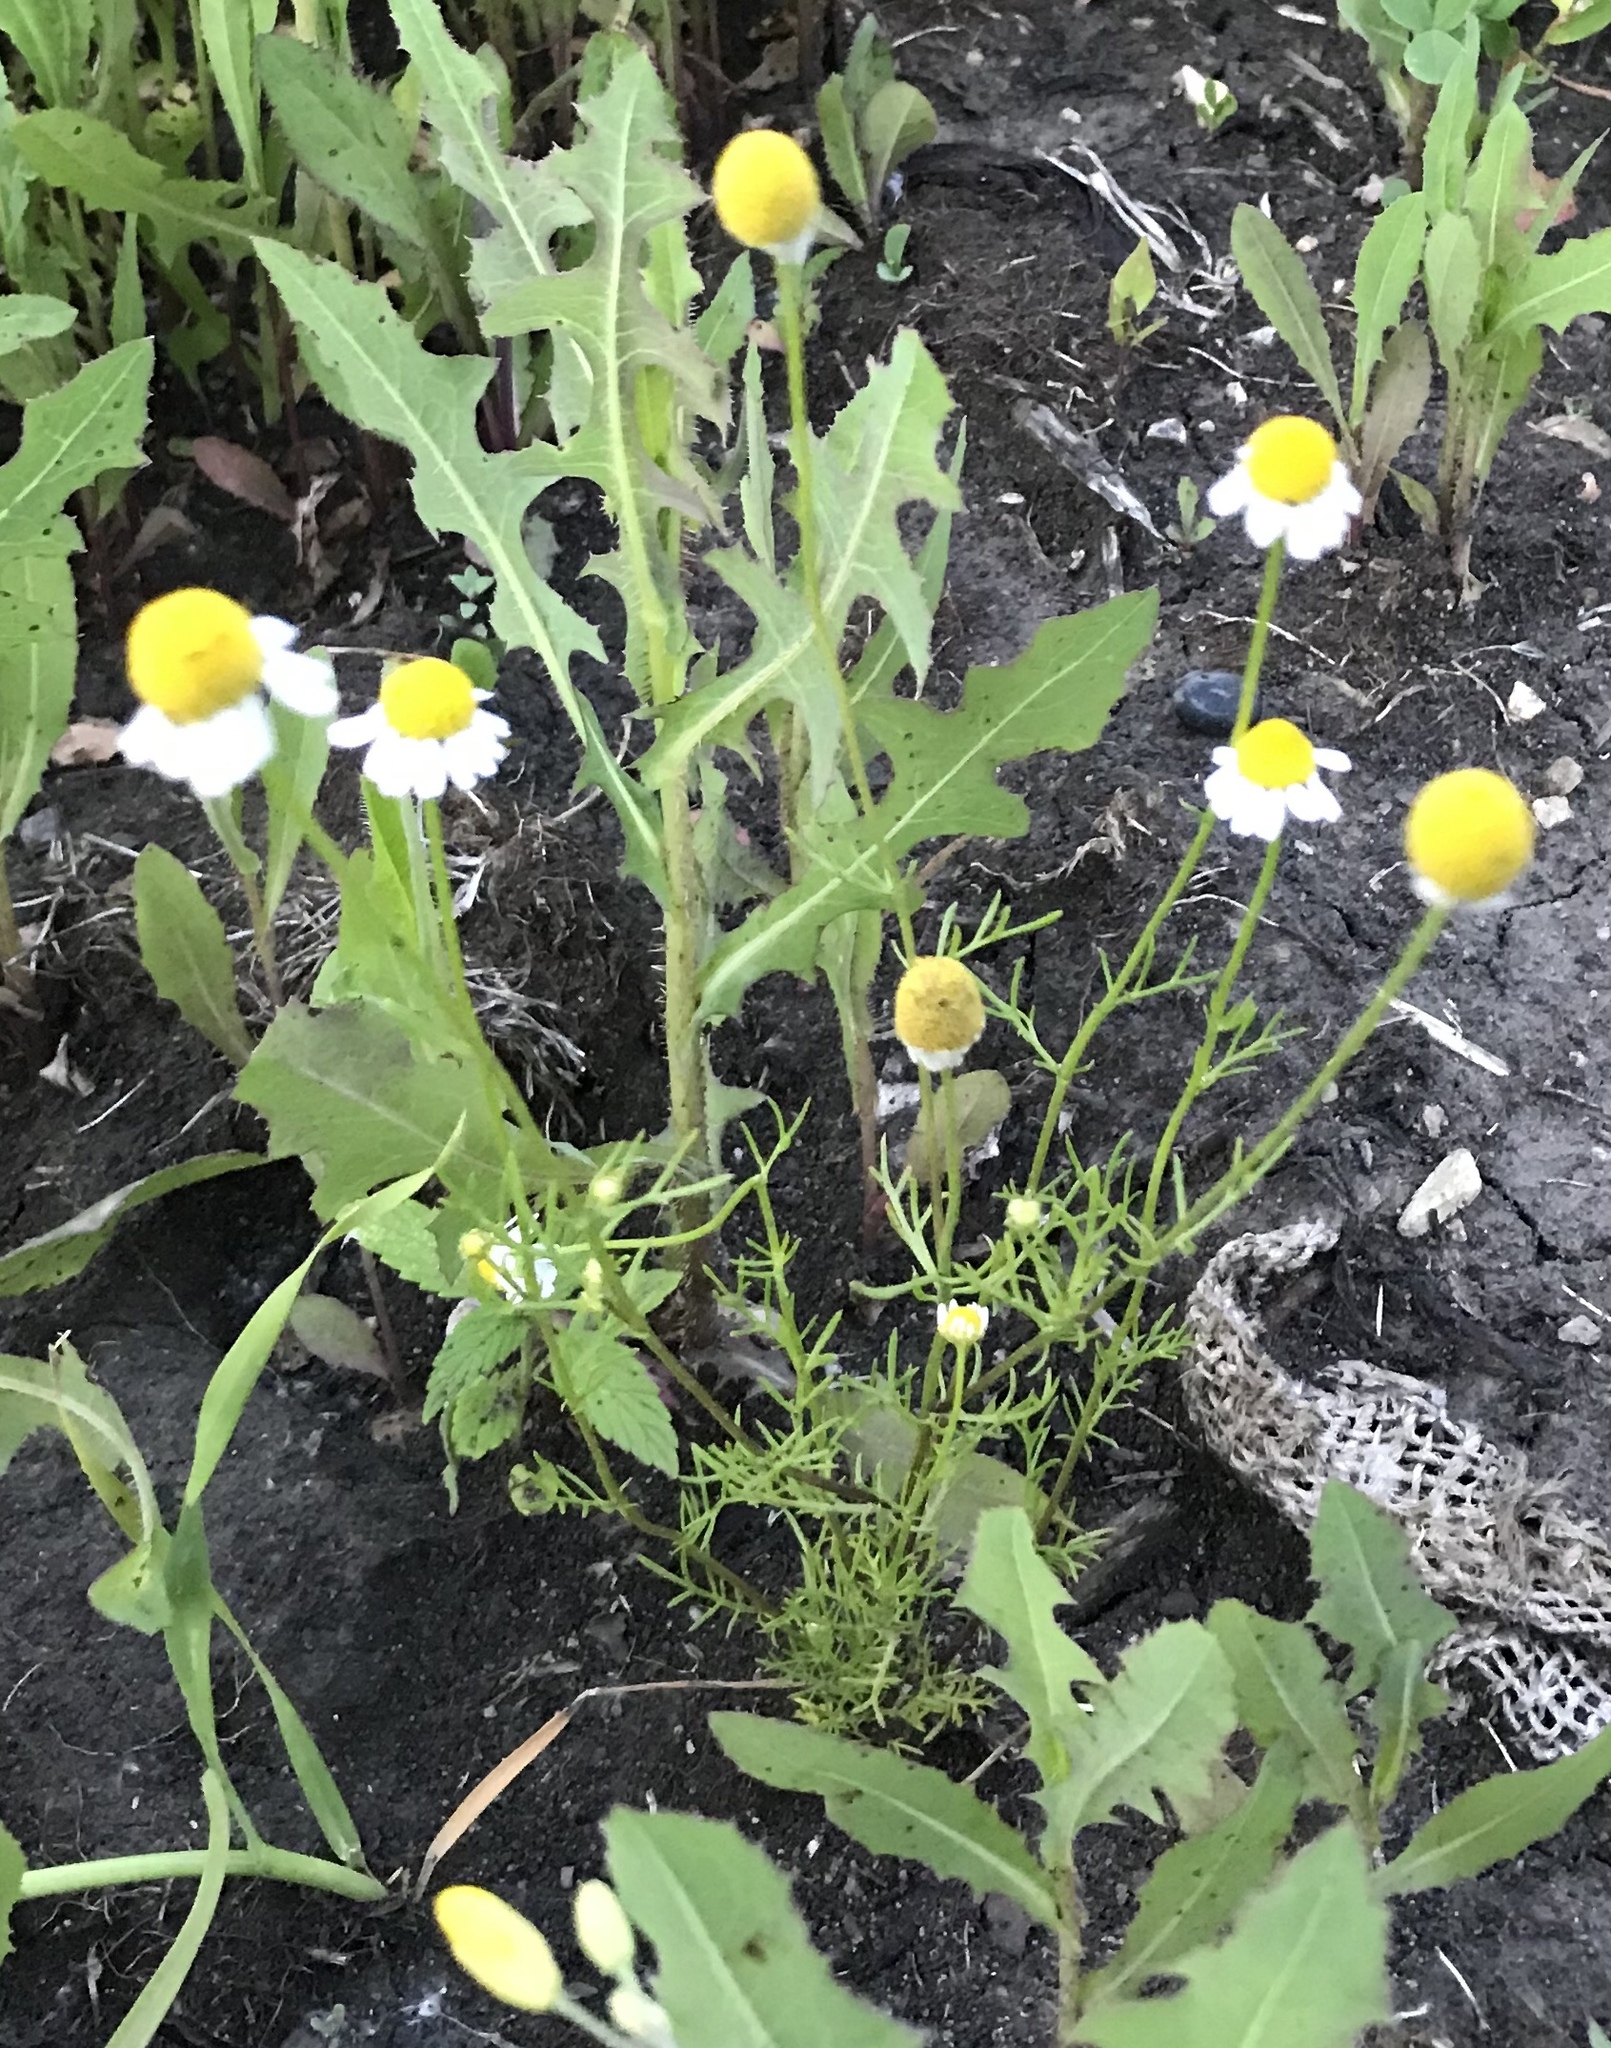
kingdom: Plantae
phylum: Tracheophyta
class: Magnoliopsida
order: Asterales
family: Asteraceae
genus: Tripleurospermum
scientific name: Tripleurospermum inodorum
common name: Scentless mayweed
